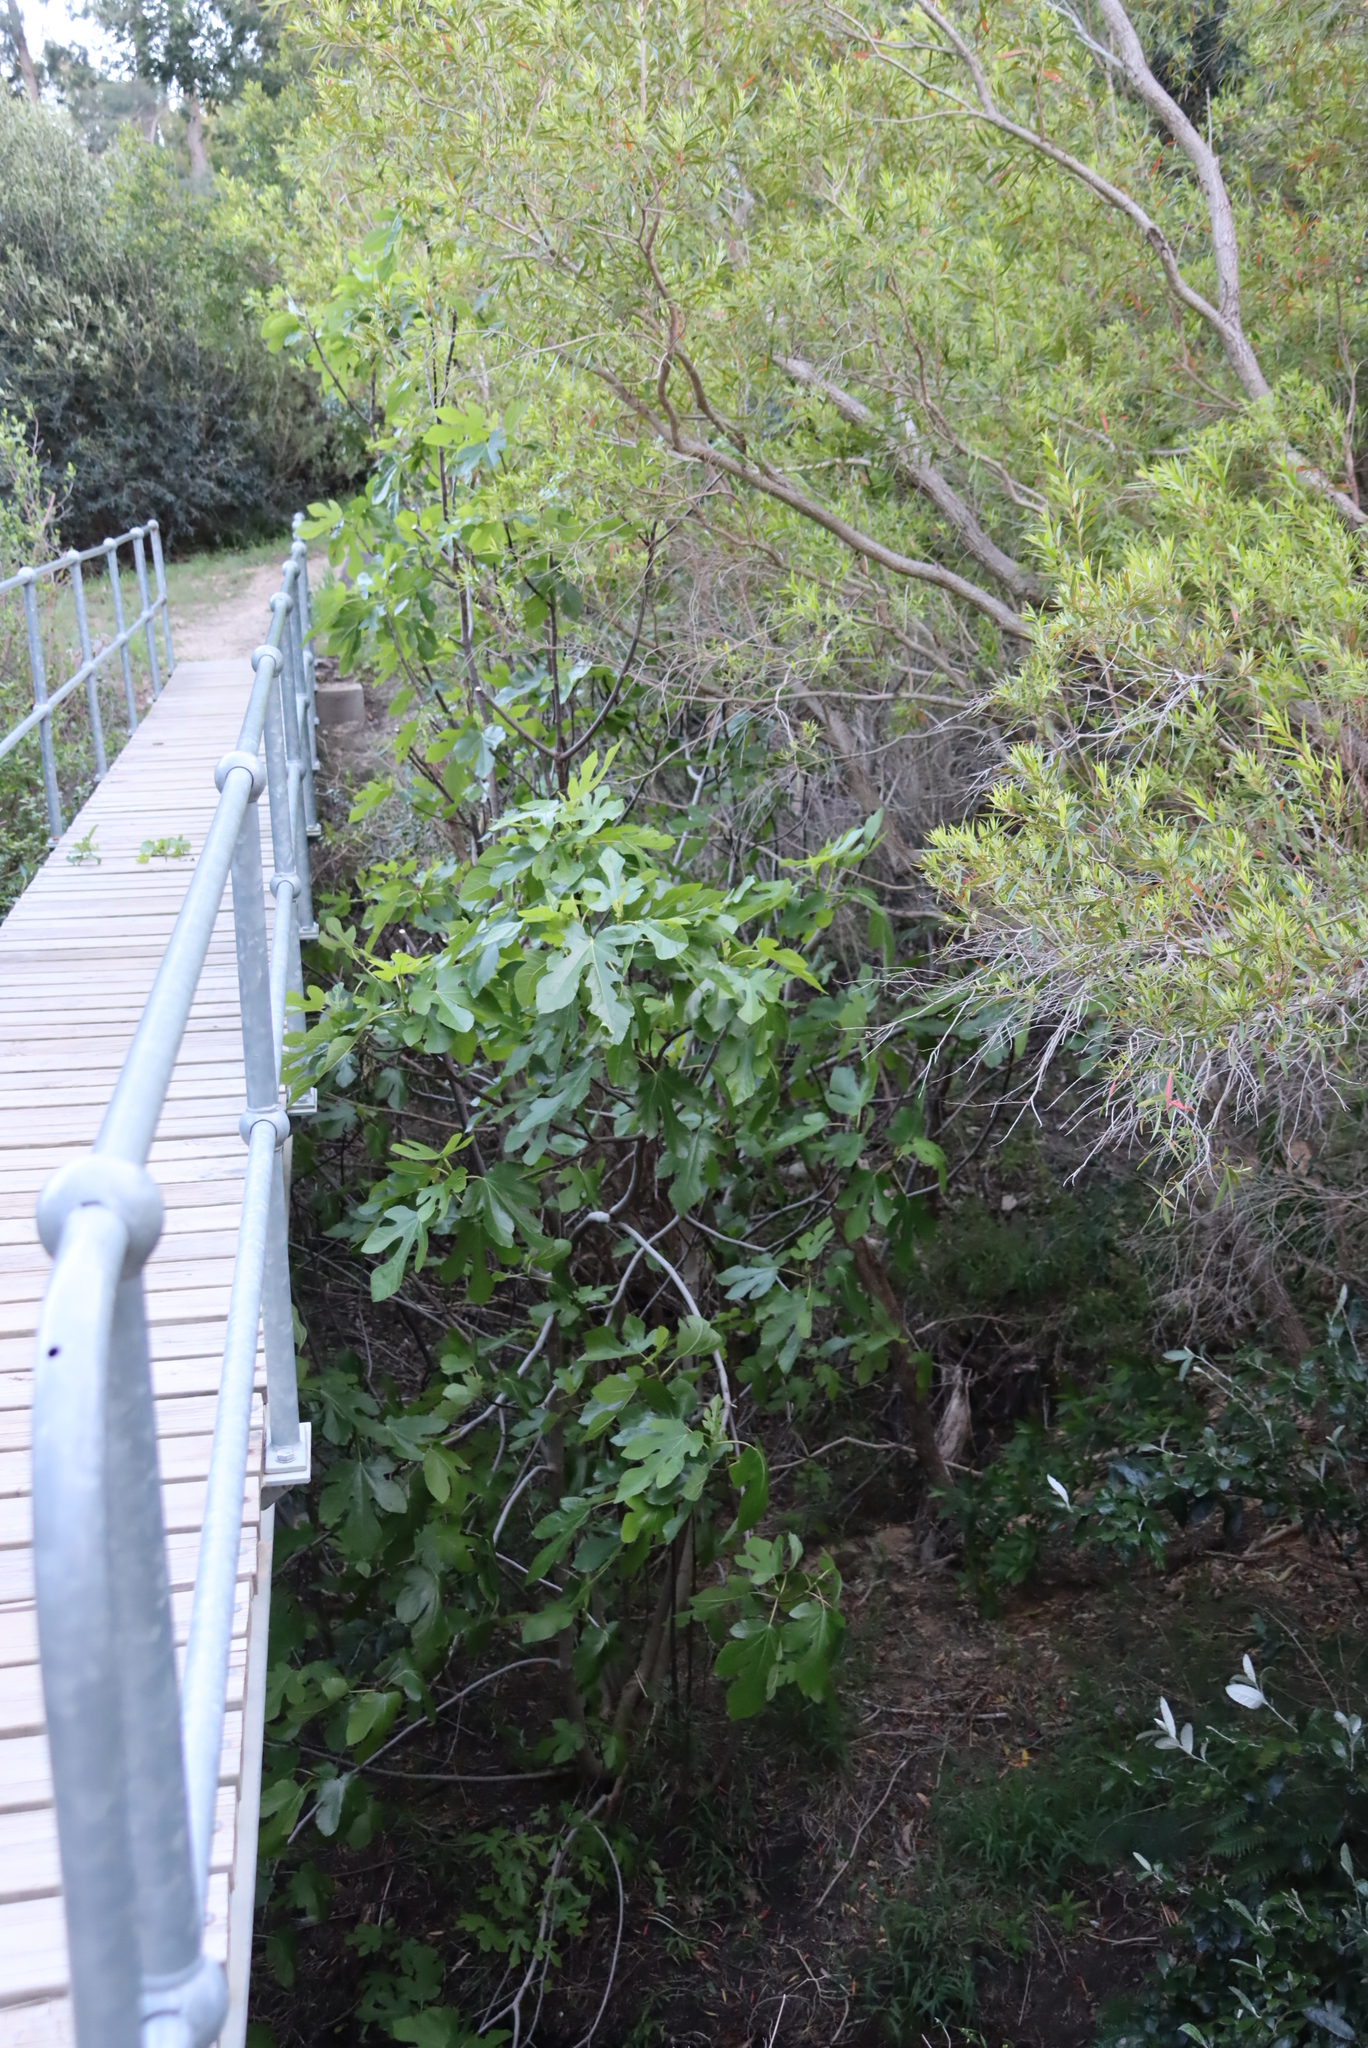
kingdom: Plantae
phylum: Tracheophyta
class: Magnoliopsida
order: Rosales
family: Moraceae
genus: Ficus
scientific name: Ficus carica
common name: Fig
